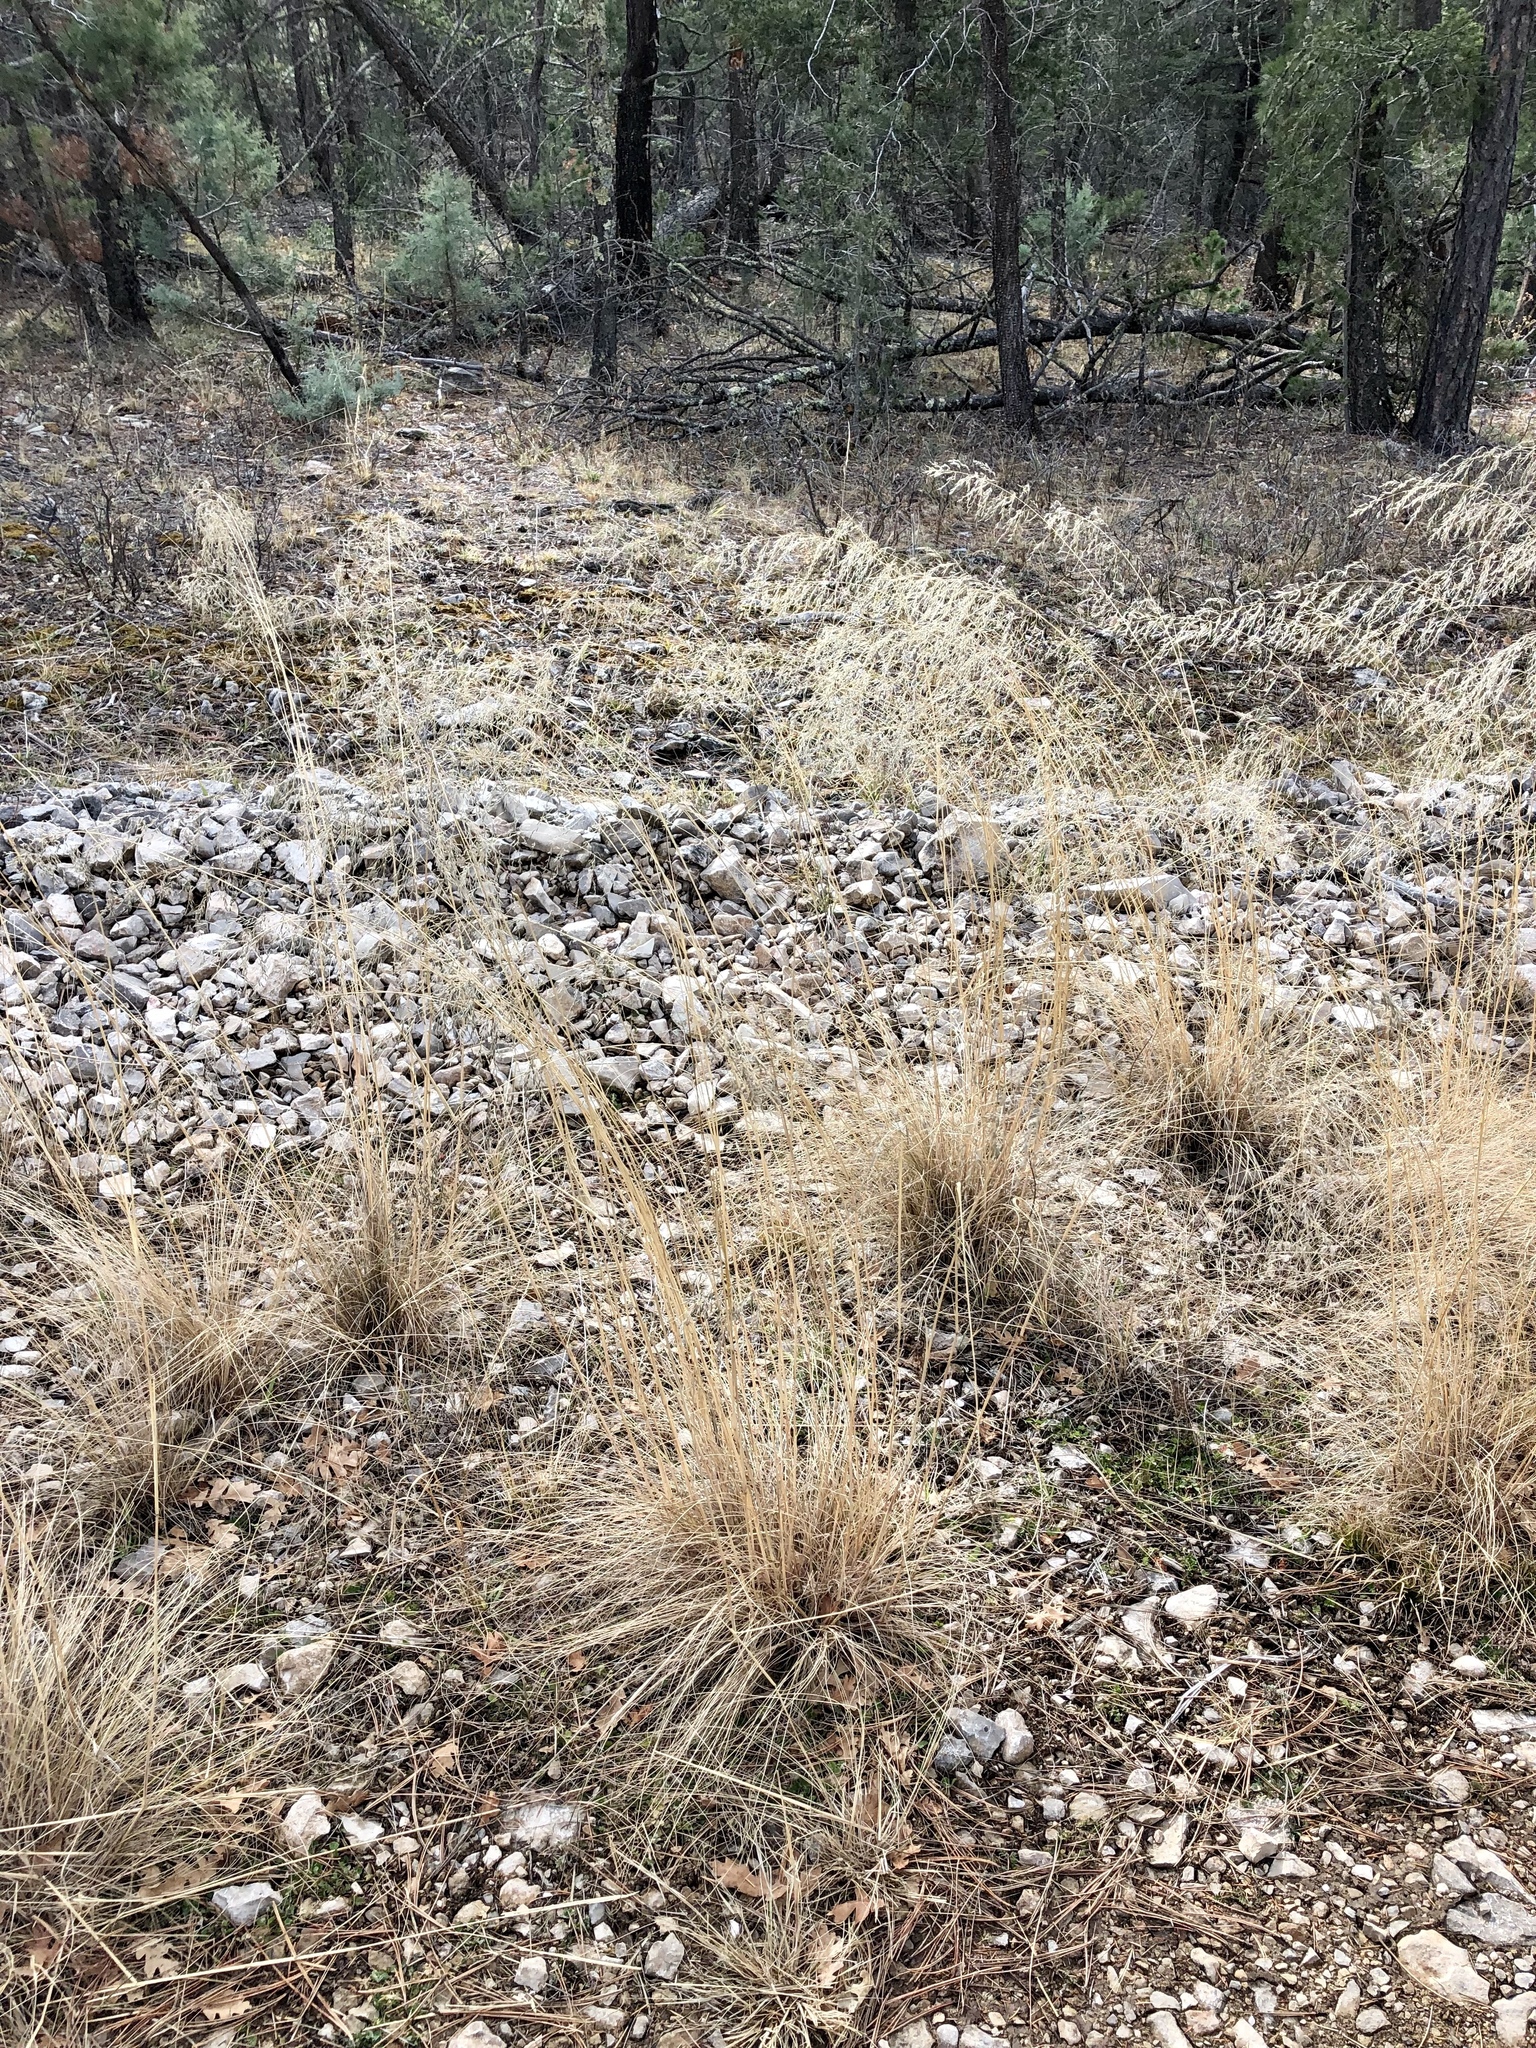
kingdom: Plantae
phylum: Tracheophyta
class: Liliopsida
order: Poales
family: Poaceae
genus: Eragrostis
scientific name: Eragrostis curvula
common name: African love-grass
